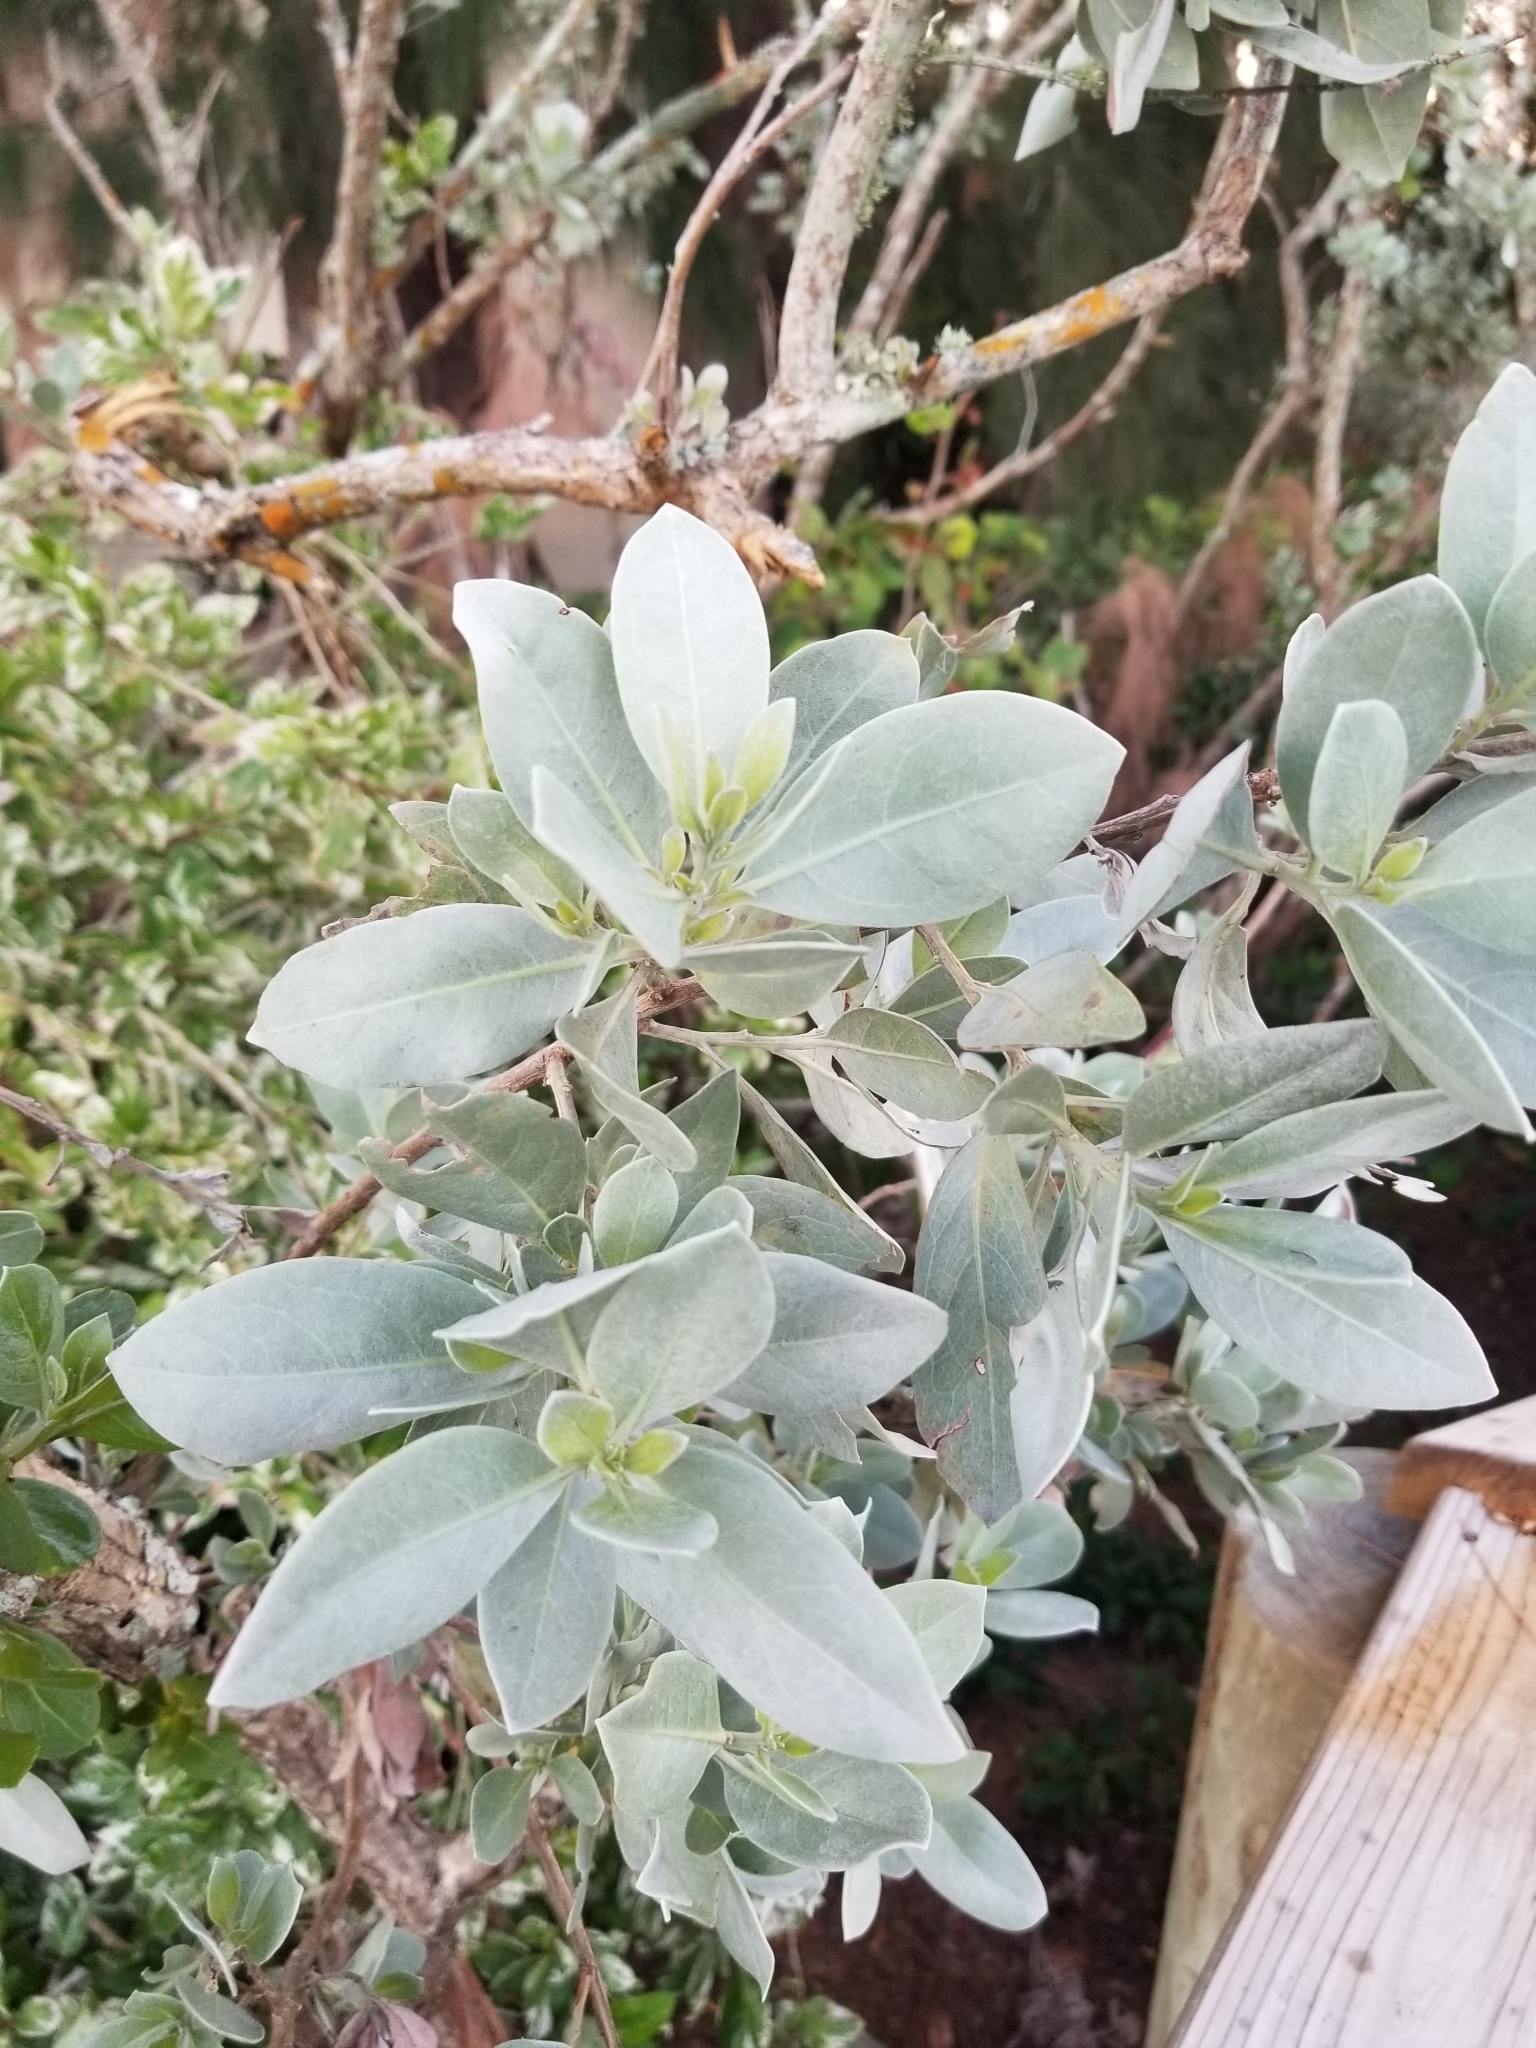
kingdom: Plantae
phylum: Tracheophyta
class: Magnoliopsida
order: Myrtales
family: Combretaceae
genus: Conocarpus
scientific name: Conocarpus erectus
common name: Button mangrove
